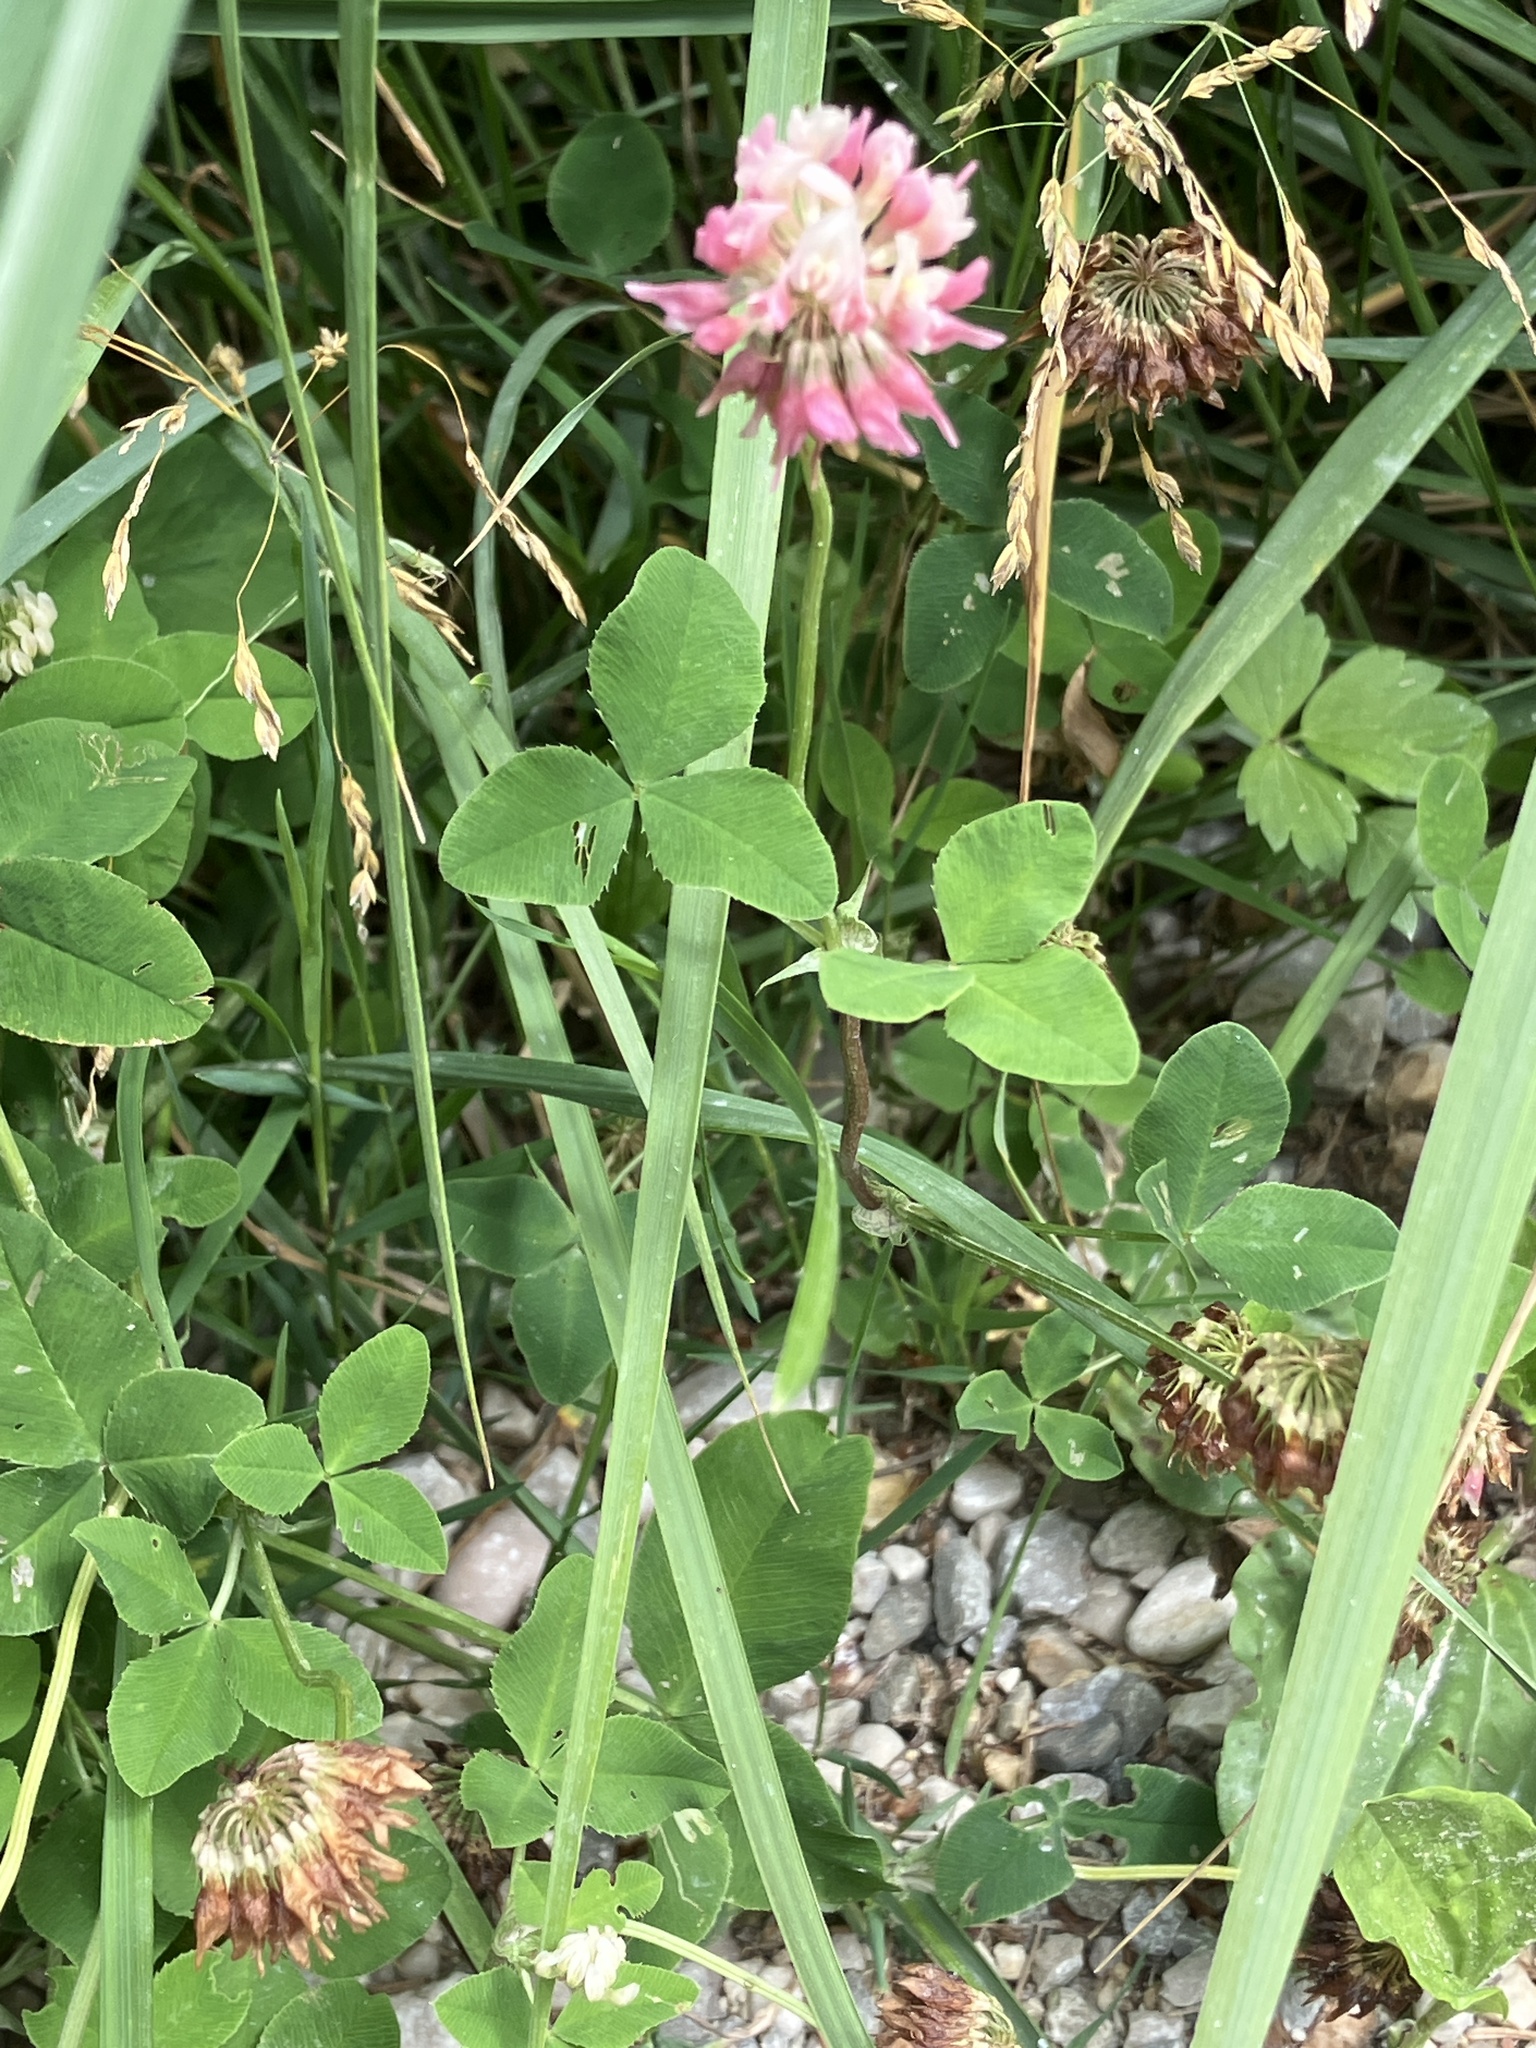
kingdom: Plantae
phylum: Tracheophyta
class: Magnoliopsida
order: Fabales
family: Fabaceae
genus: Trifolium
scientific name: Trifolium hybridum
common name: Alsike clover
